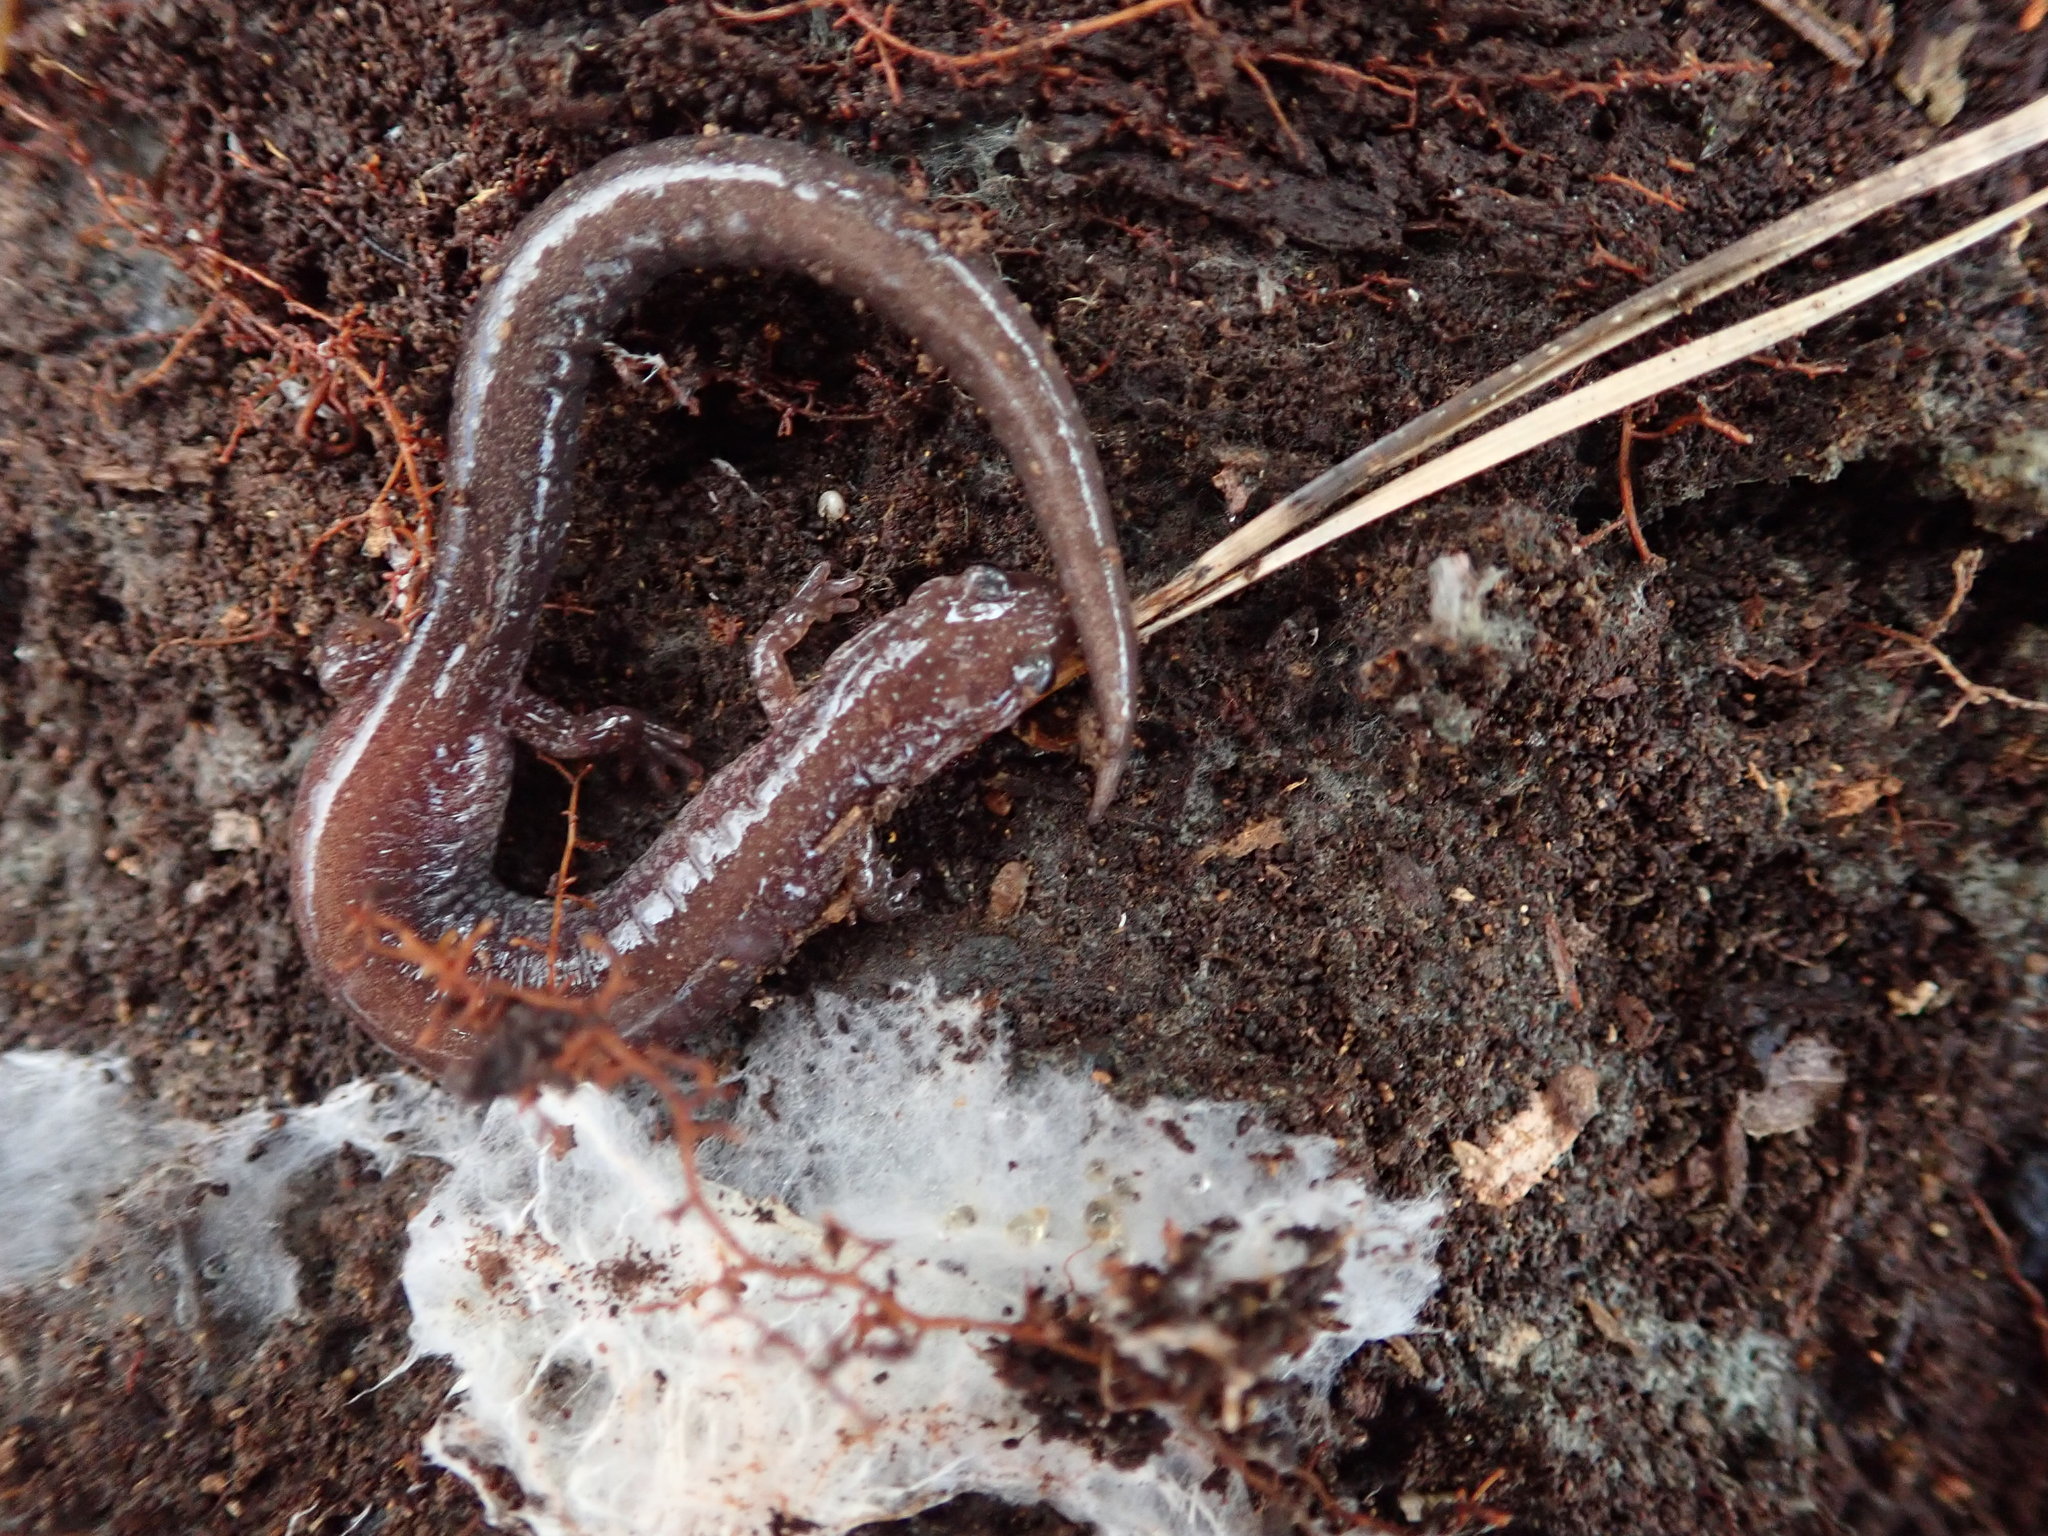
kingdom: Animalia
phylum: Chordata
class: Amphibia
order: Caudata
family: Plethodontidae
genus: Plethodon
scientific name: Plethodon cinereus
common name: Redback salamander
